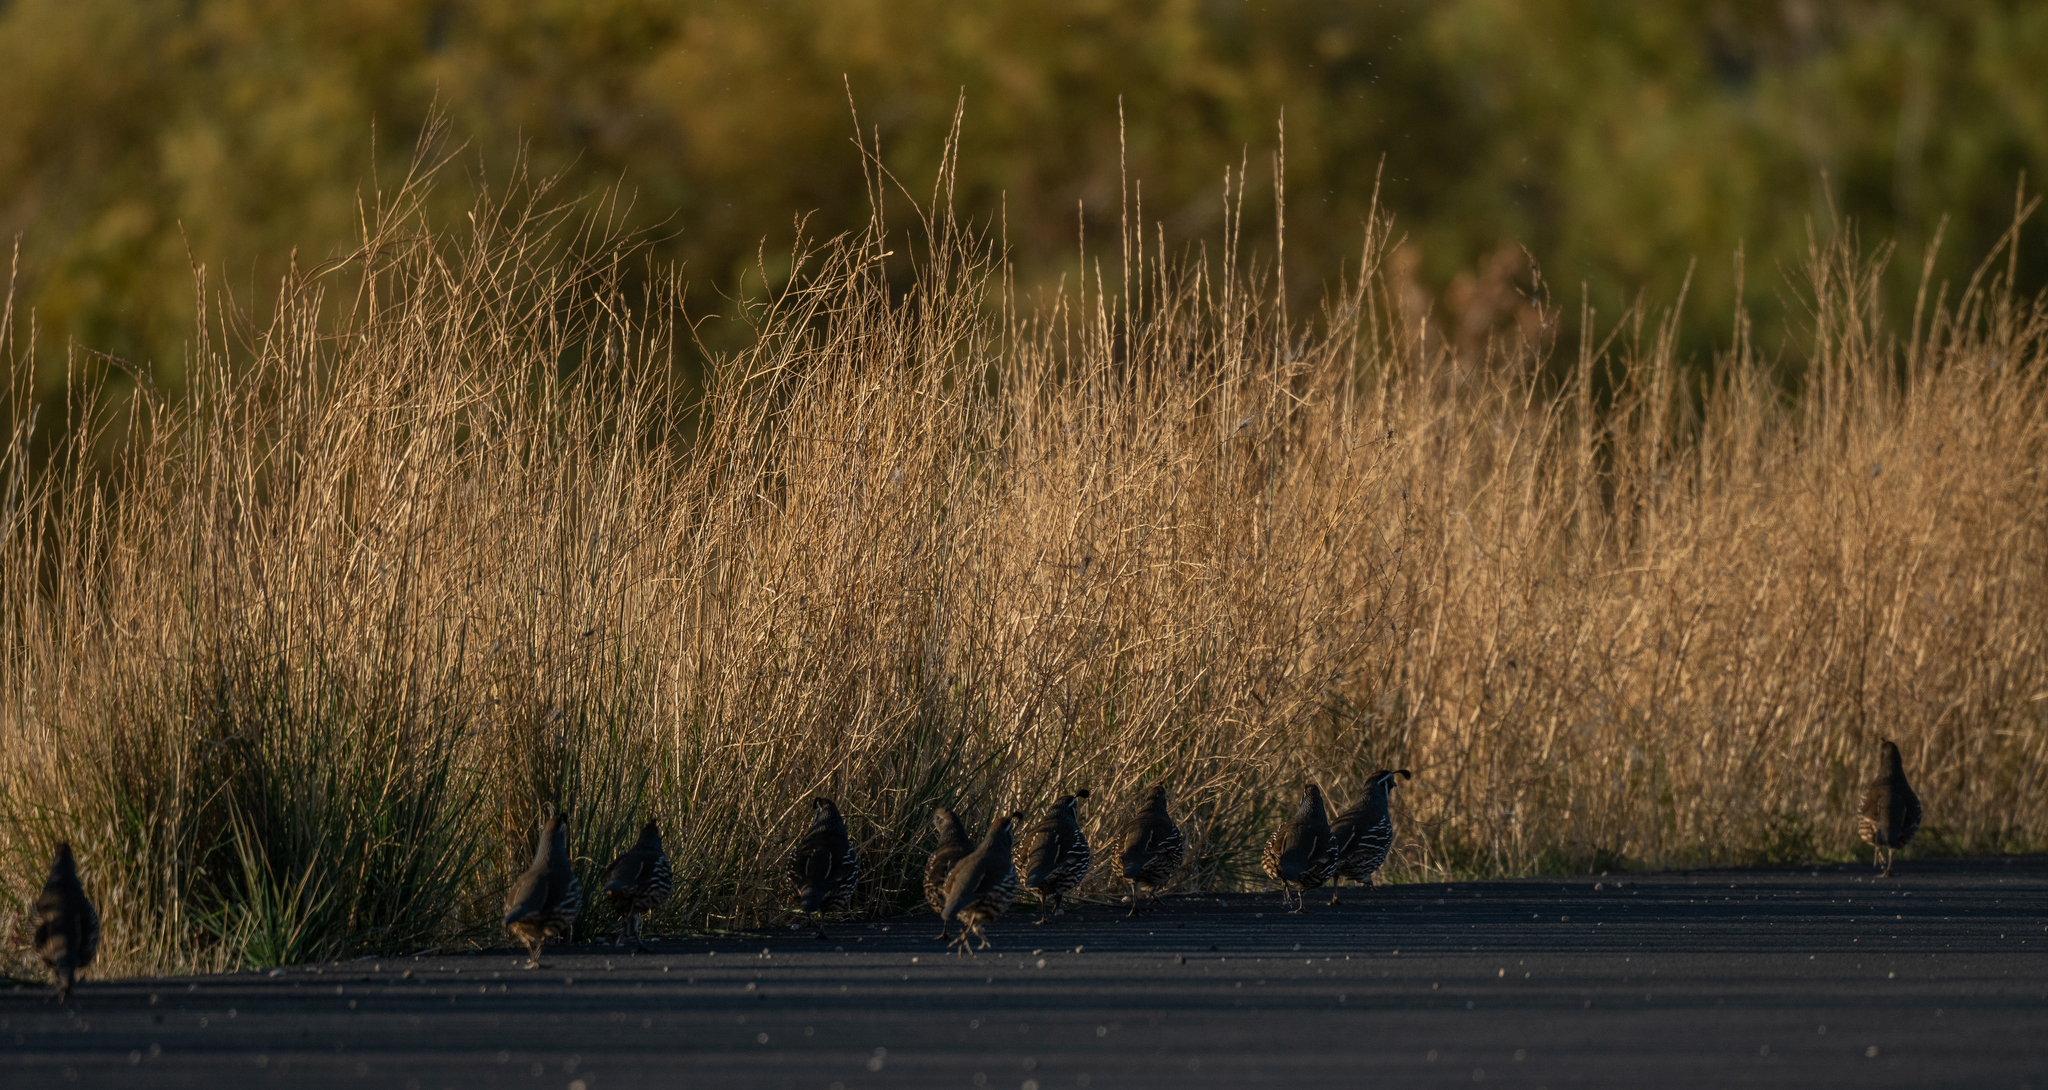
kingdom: Animalia
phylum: Chordata
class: Aves
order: Galliformes
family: Odontophoridae
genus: Callipepla
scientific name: Callipepla californica
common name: California quail
